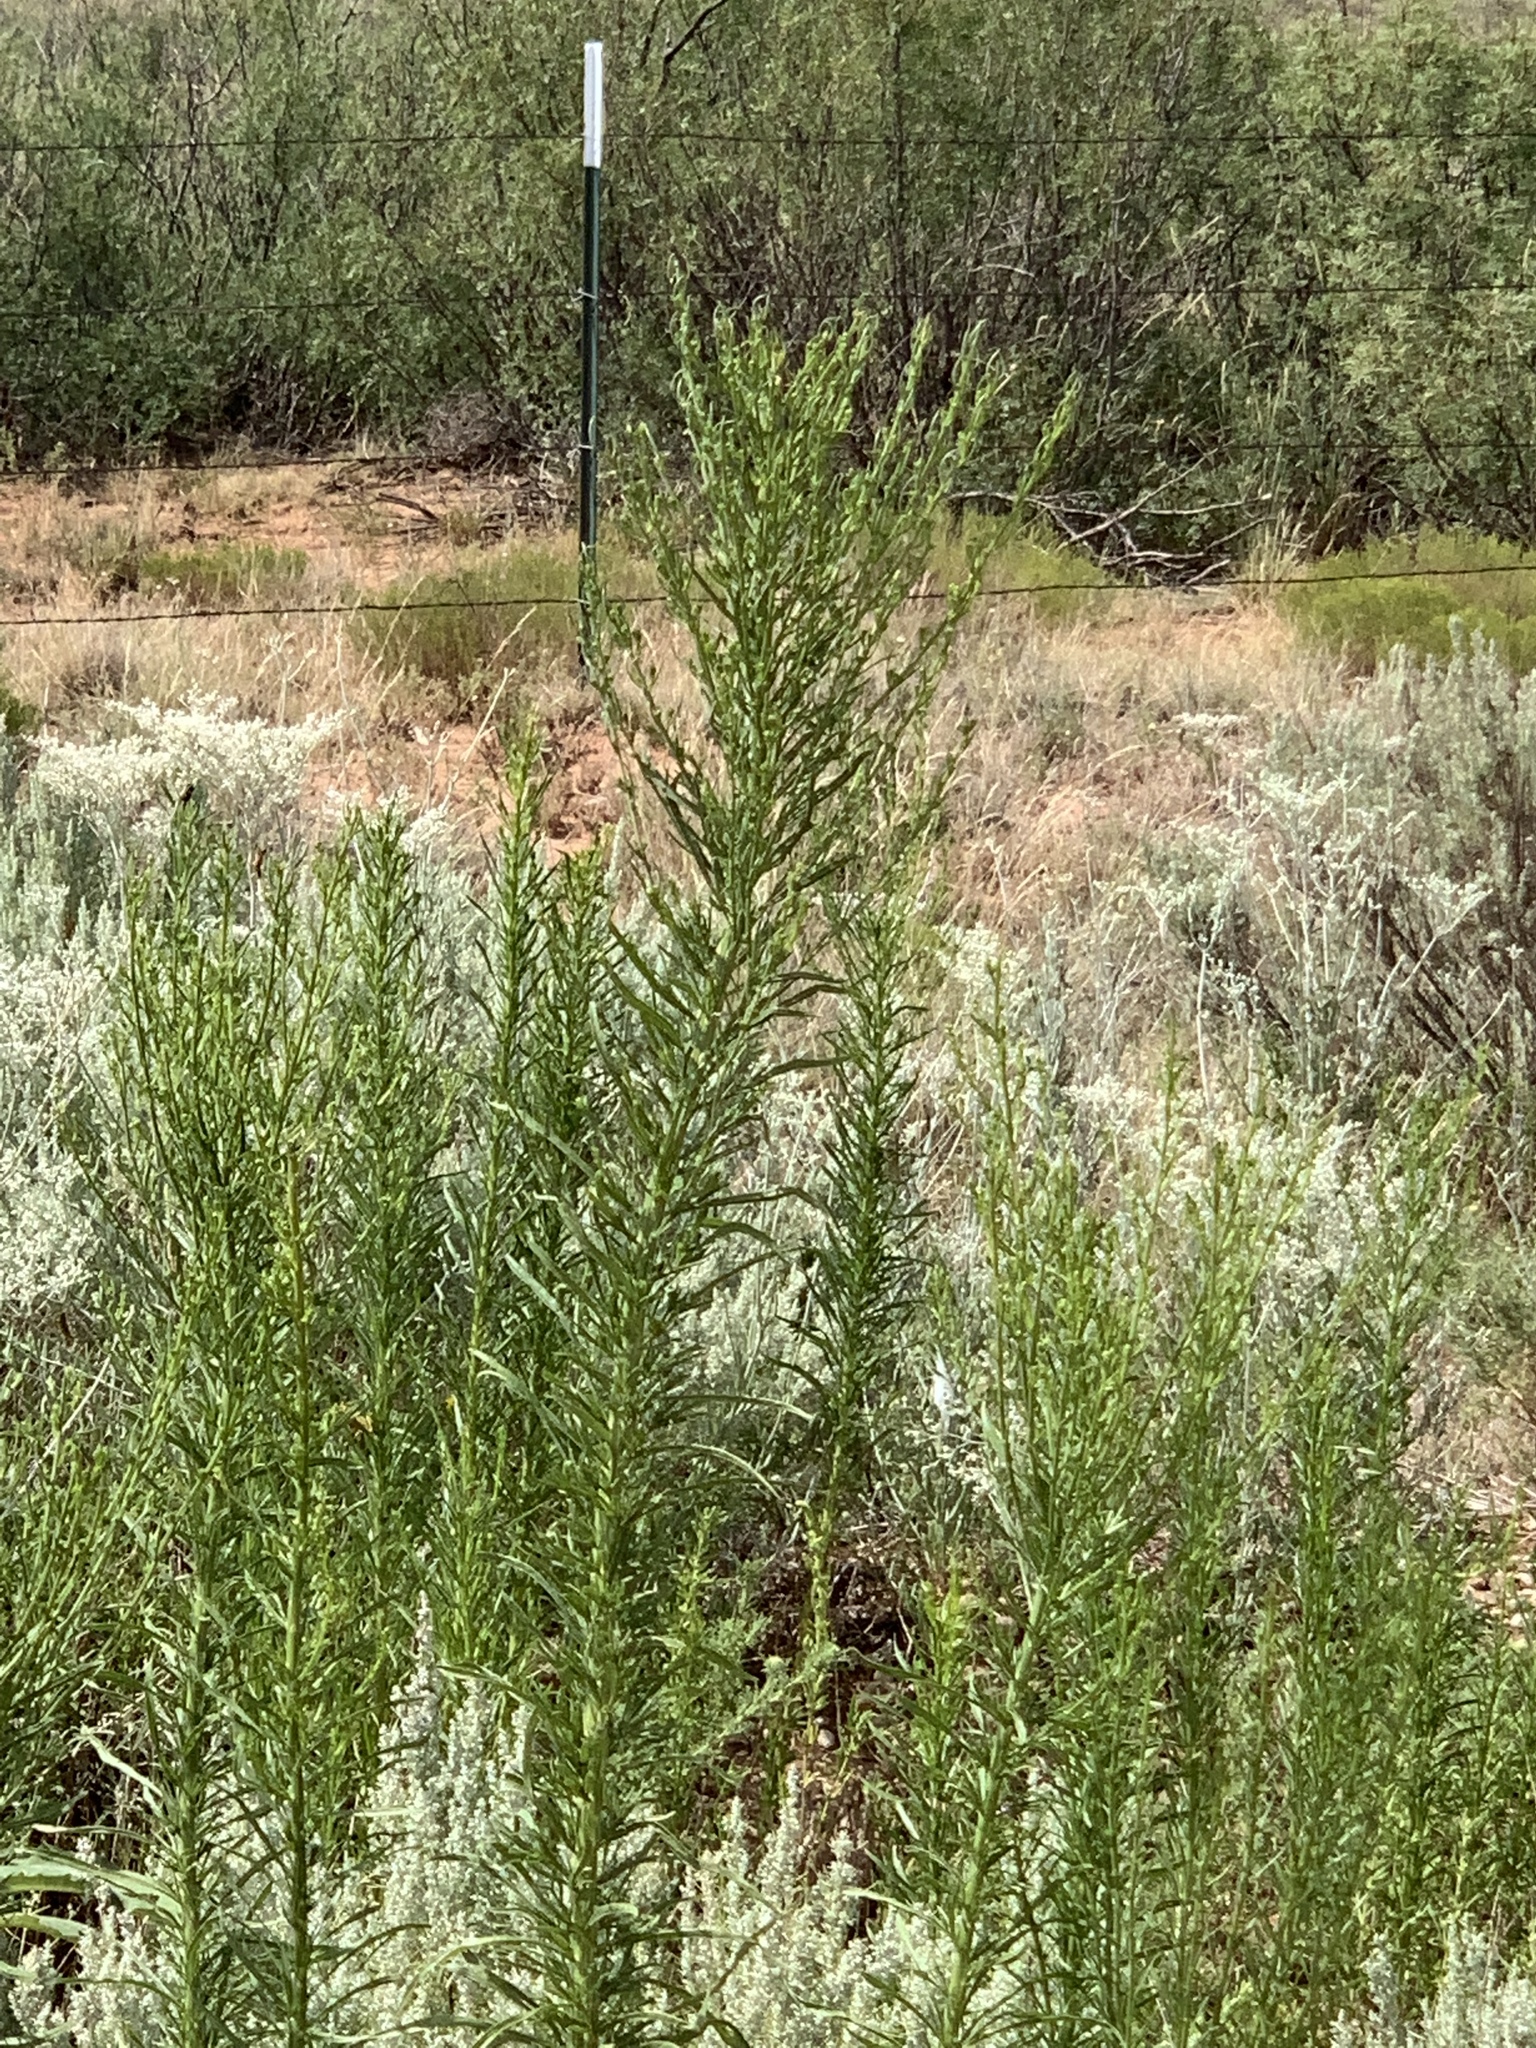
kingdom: Plantae
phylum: Tracheophyta
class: Magnoliopsida
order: Asterales
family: Asteraceae
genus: Erigeron
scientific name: Erigeron canadensis
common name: Canadian fleabane
